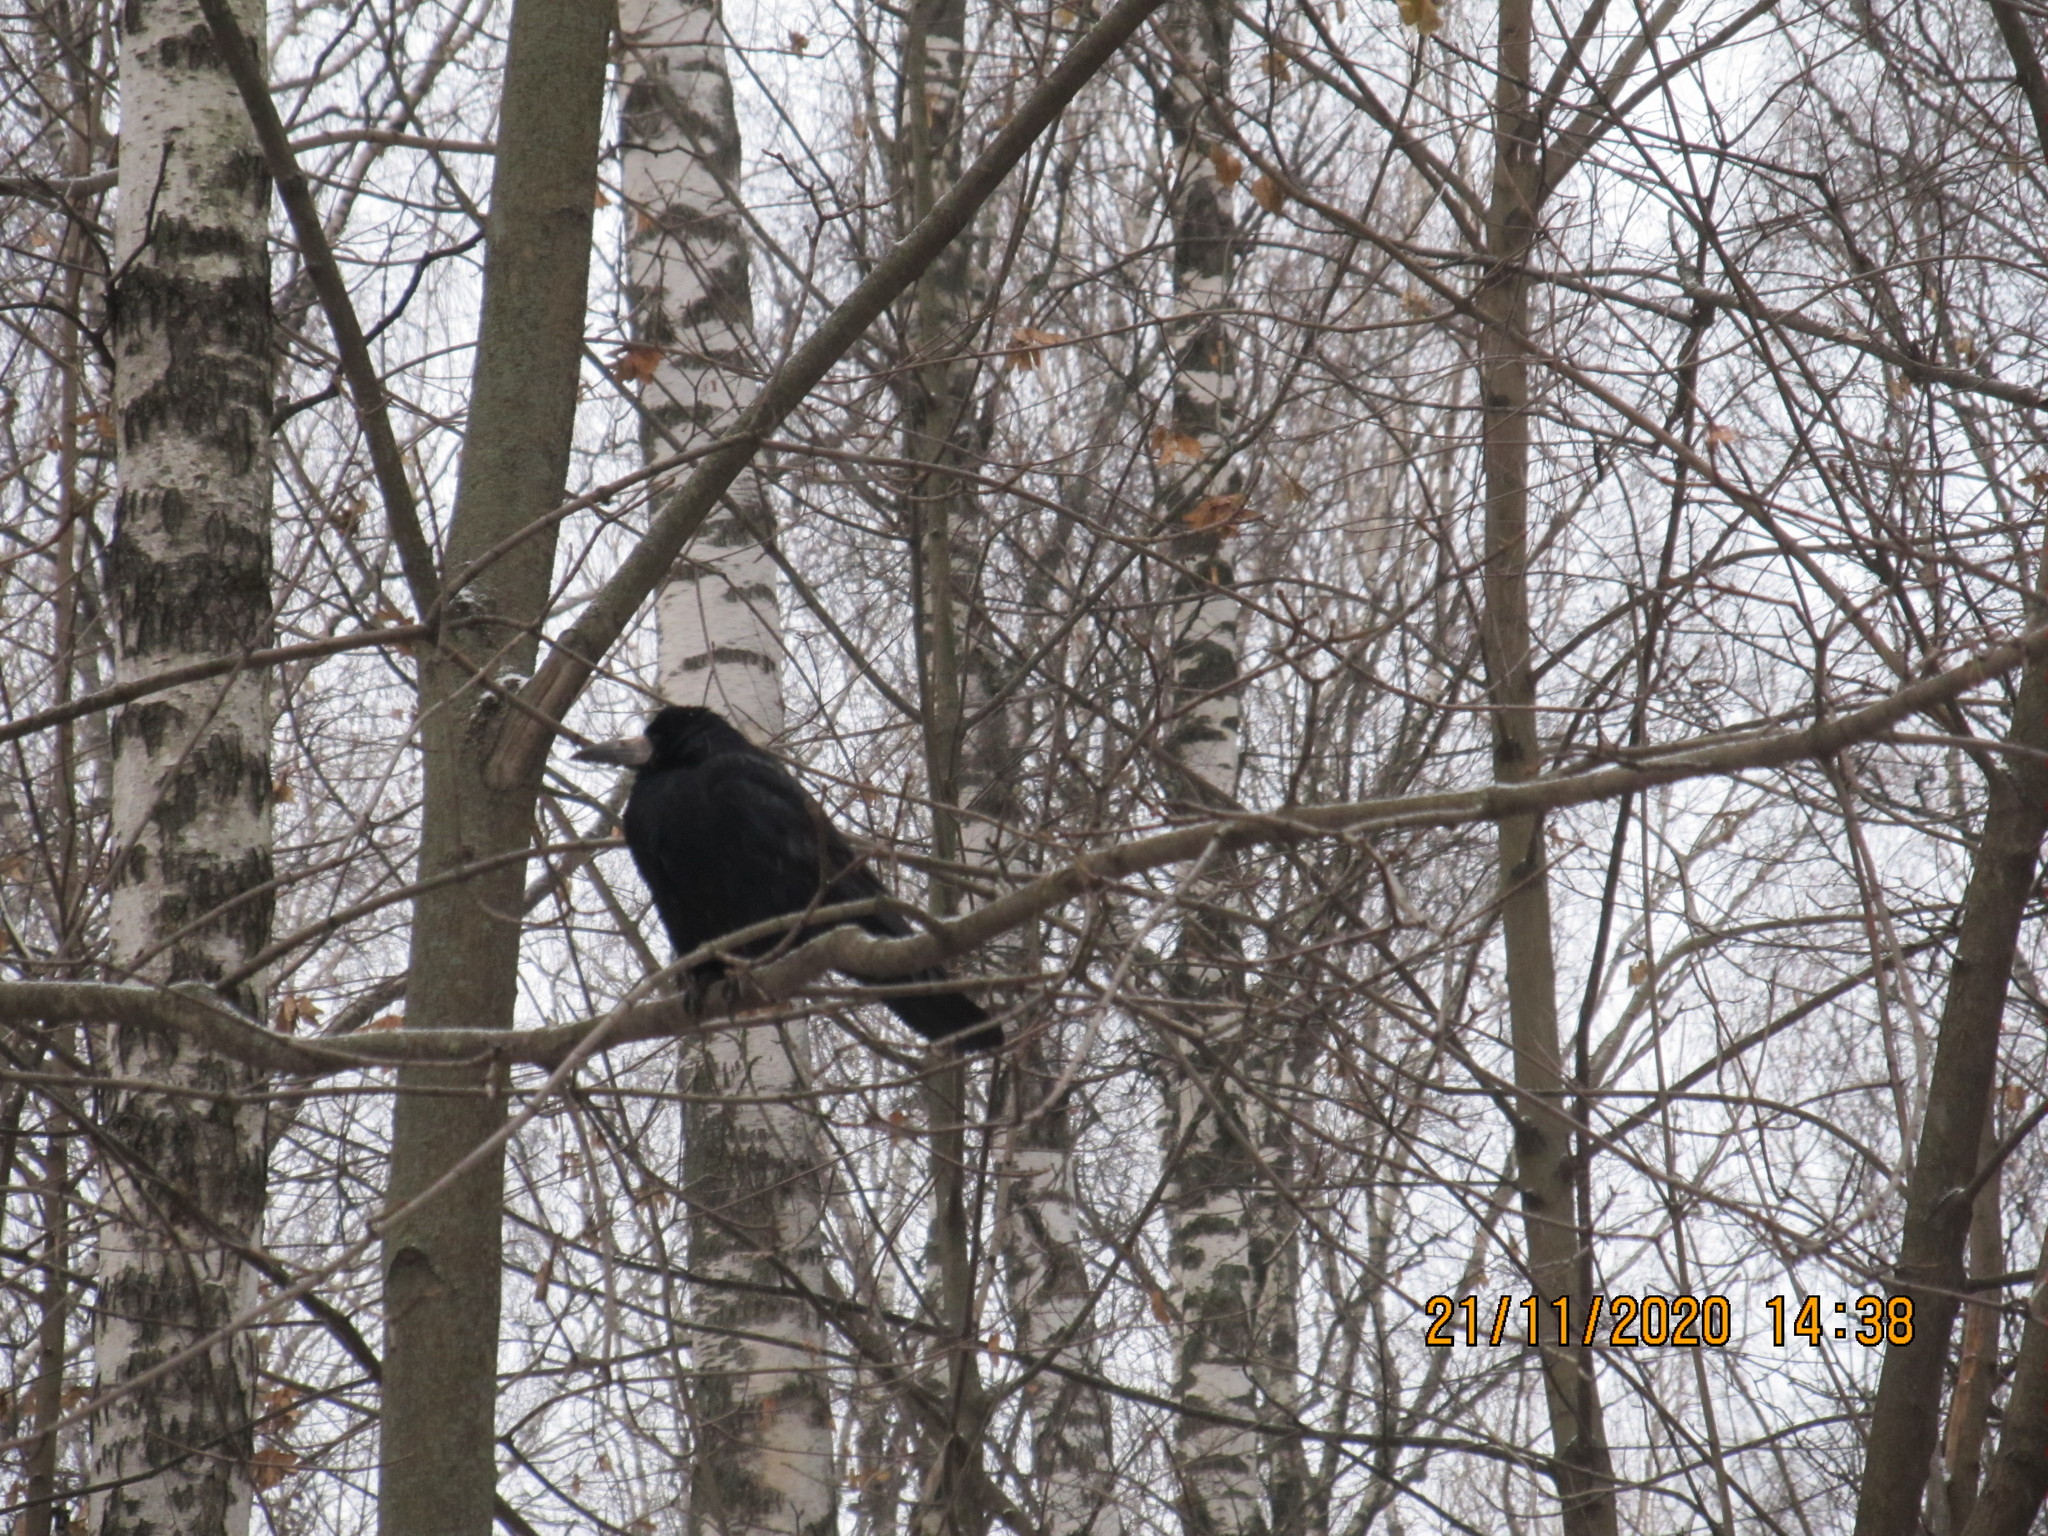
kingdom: Animalia
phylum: Chordata
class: Aves
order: Passeriformes
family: Corvidae
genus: Corvus
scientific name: Corvus frugilegus
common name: Rook
